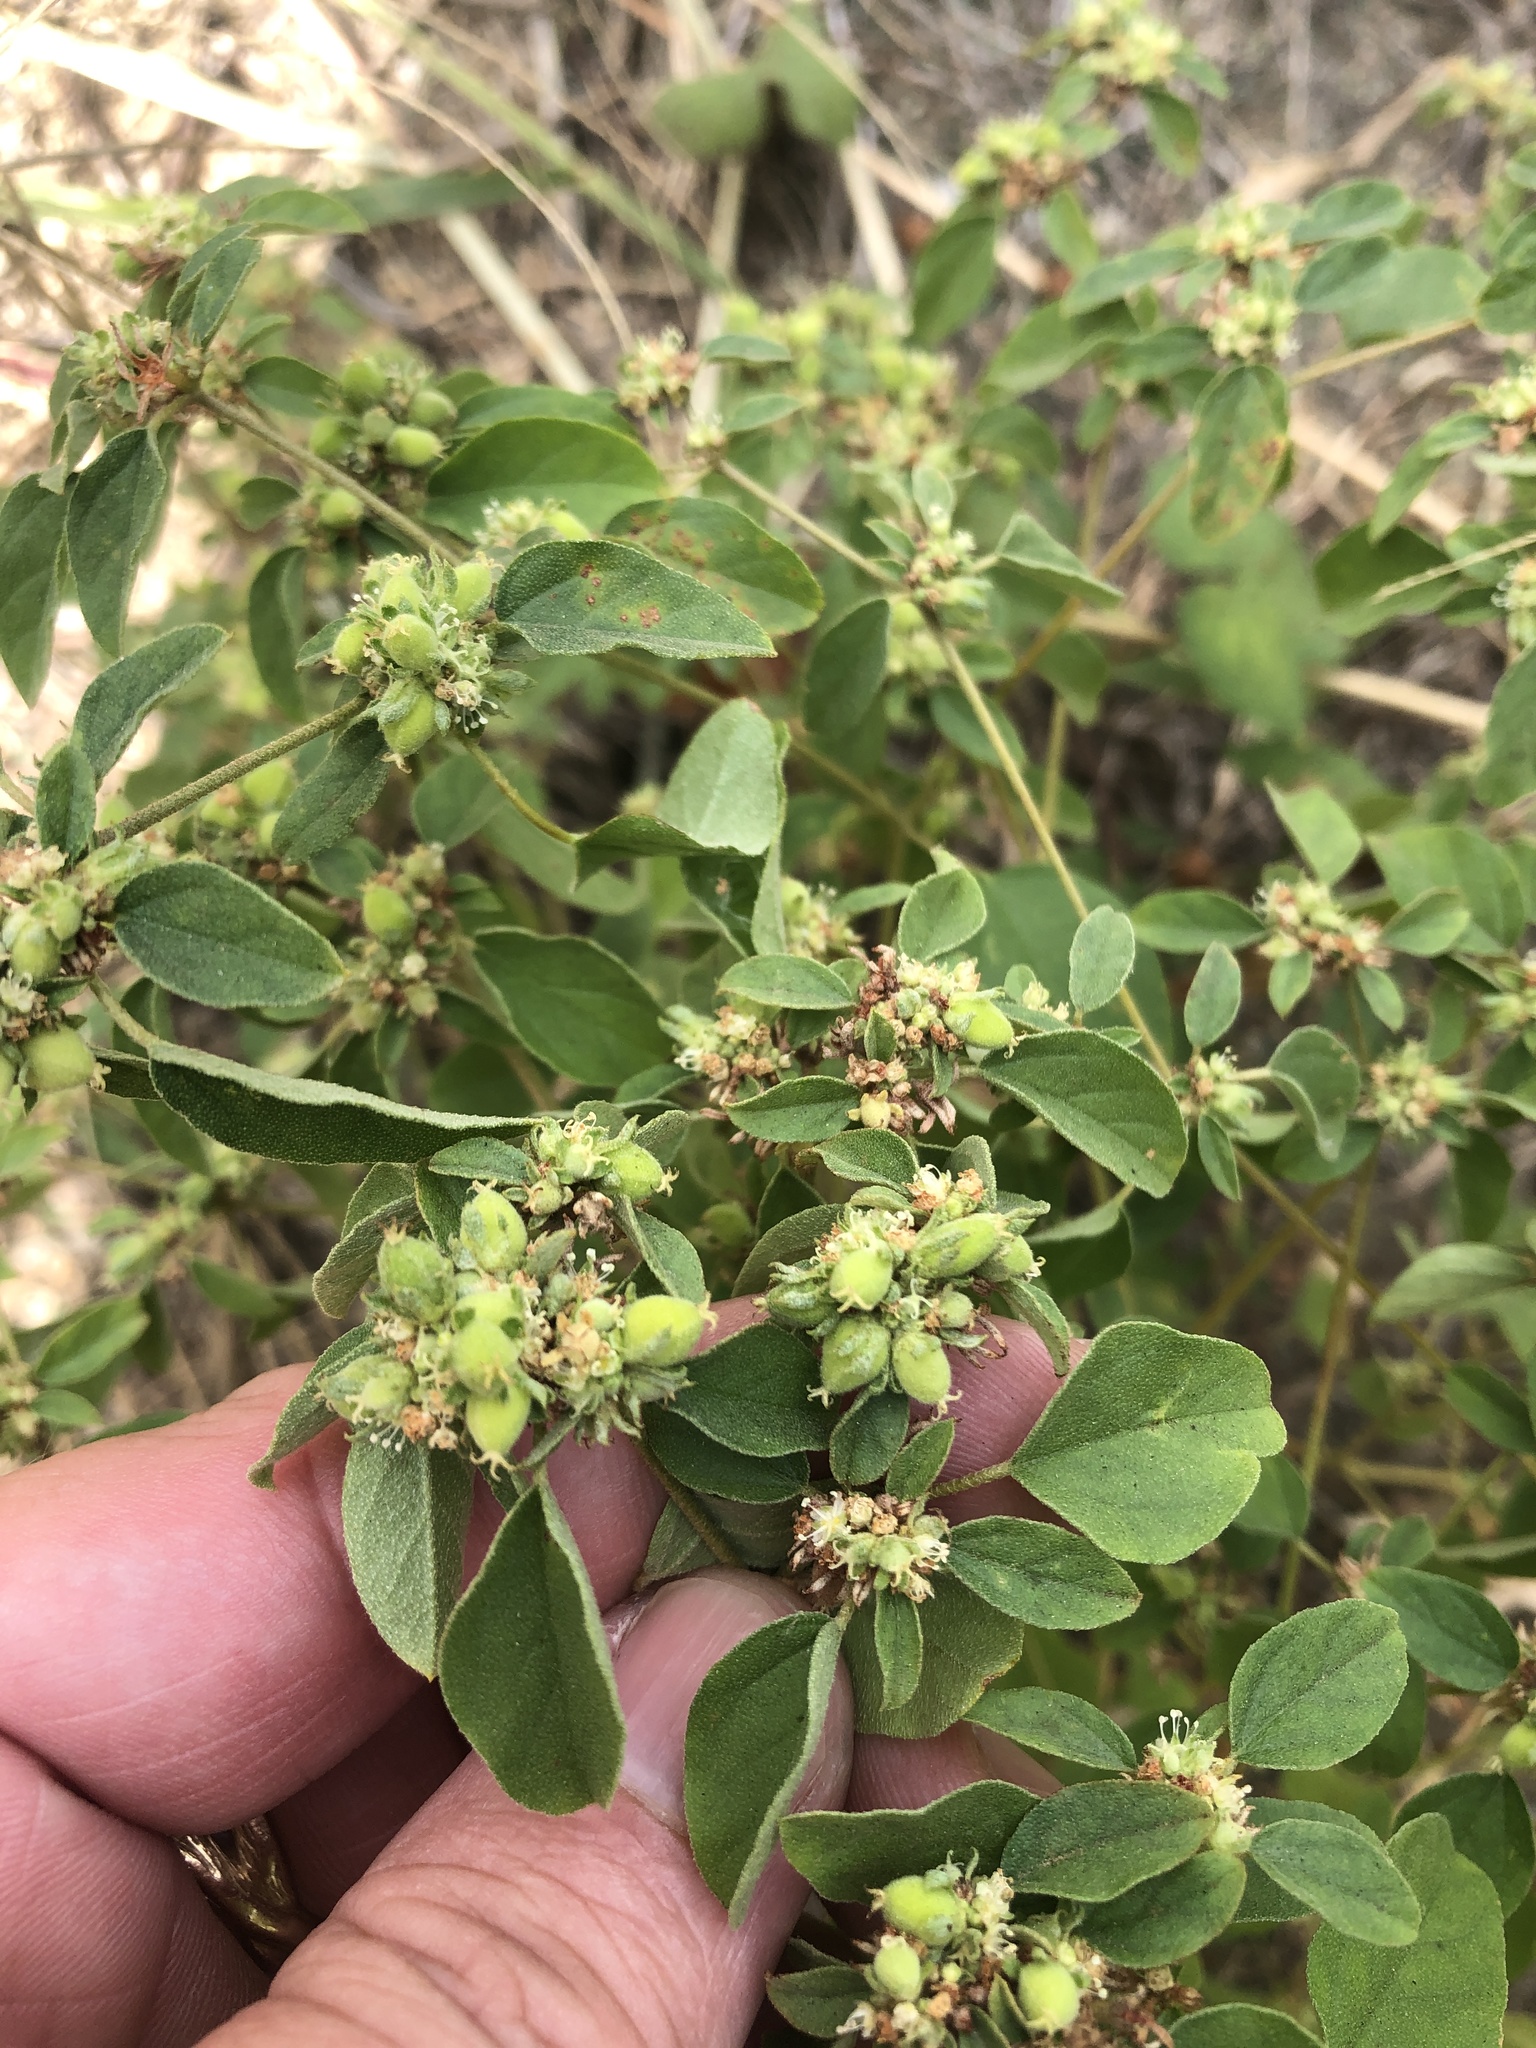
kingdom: Plantae
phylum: Tracheophyta
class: Magnoliopsida
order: Malpighiales
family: Euphorbiaceae
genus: Croton
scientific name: Croton monanthogynus
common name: One-seed croton
